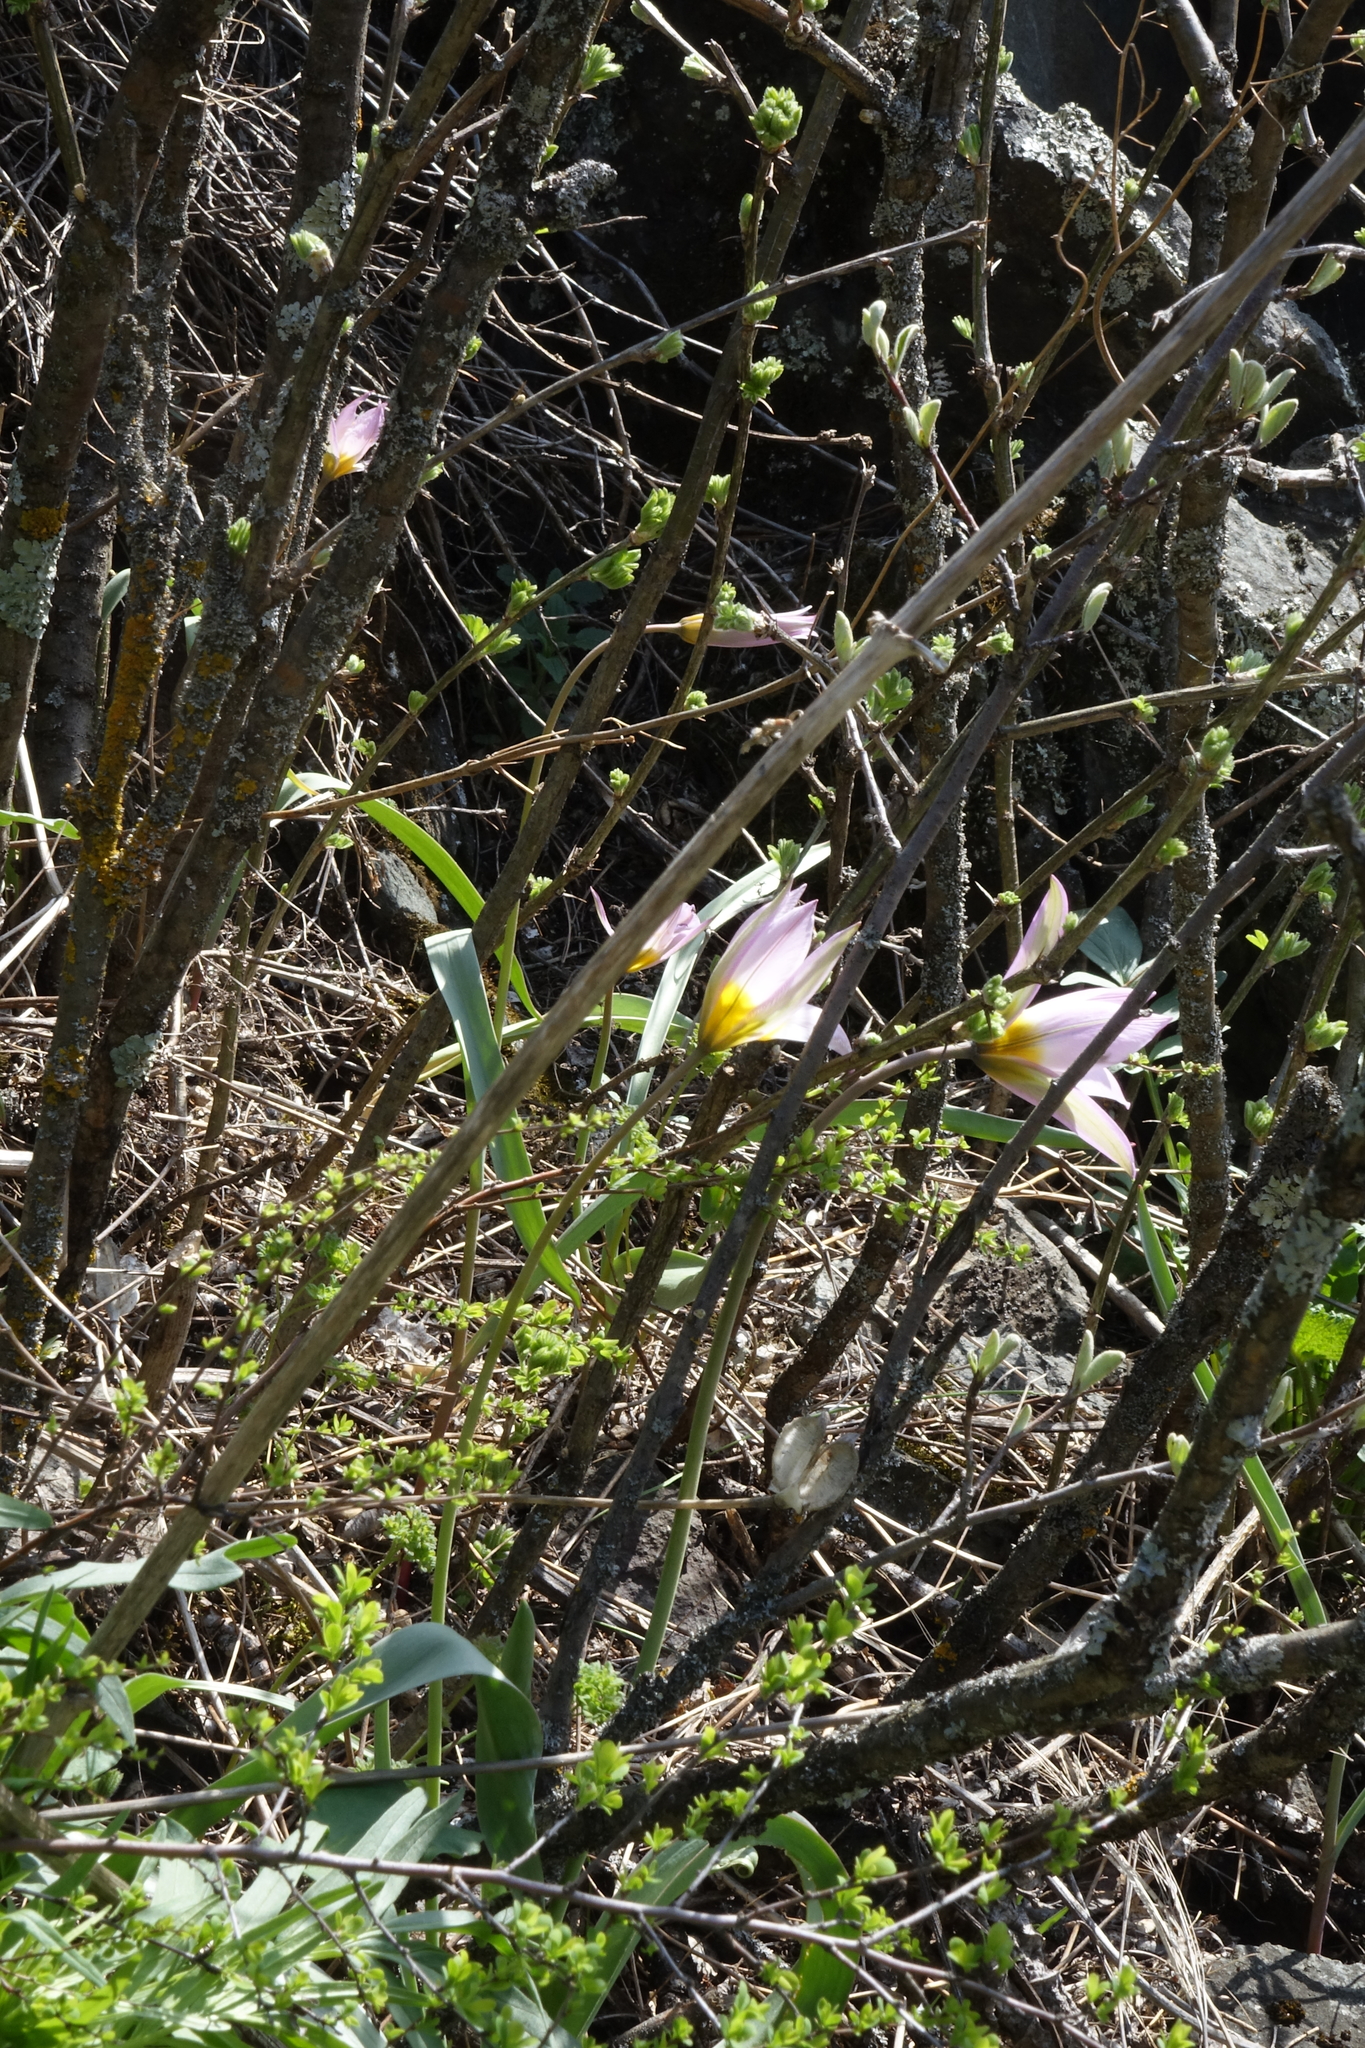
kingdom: Plantae
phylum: Tracheophyta
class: Liliopsida
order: Liliales
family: Liliaceae
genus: Tulipa
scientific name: Tulipa patens
